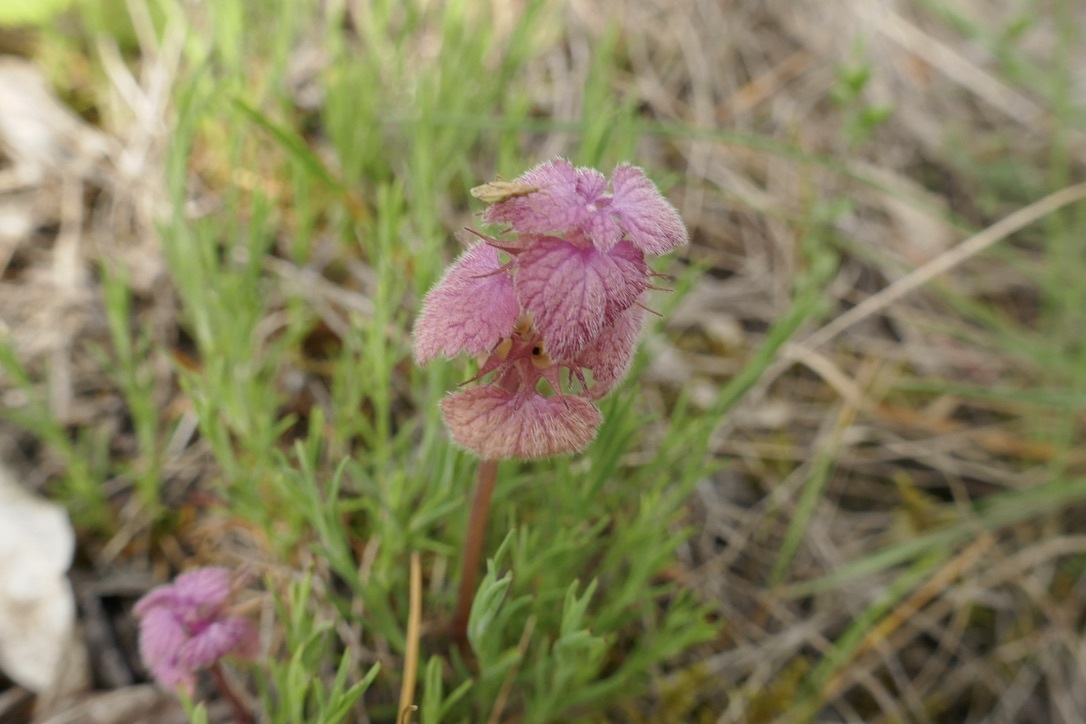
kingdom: Plantae
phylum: Tracheophyta
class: Magnoliopsida
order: Lamiales
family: Lamiaceae
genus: Lamium
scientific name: Lamium purpureum
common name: Red dead-nettle
